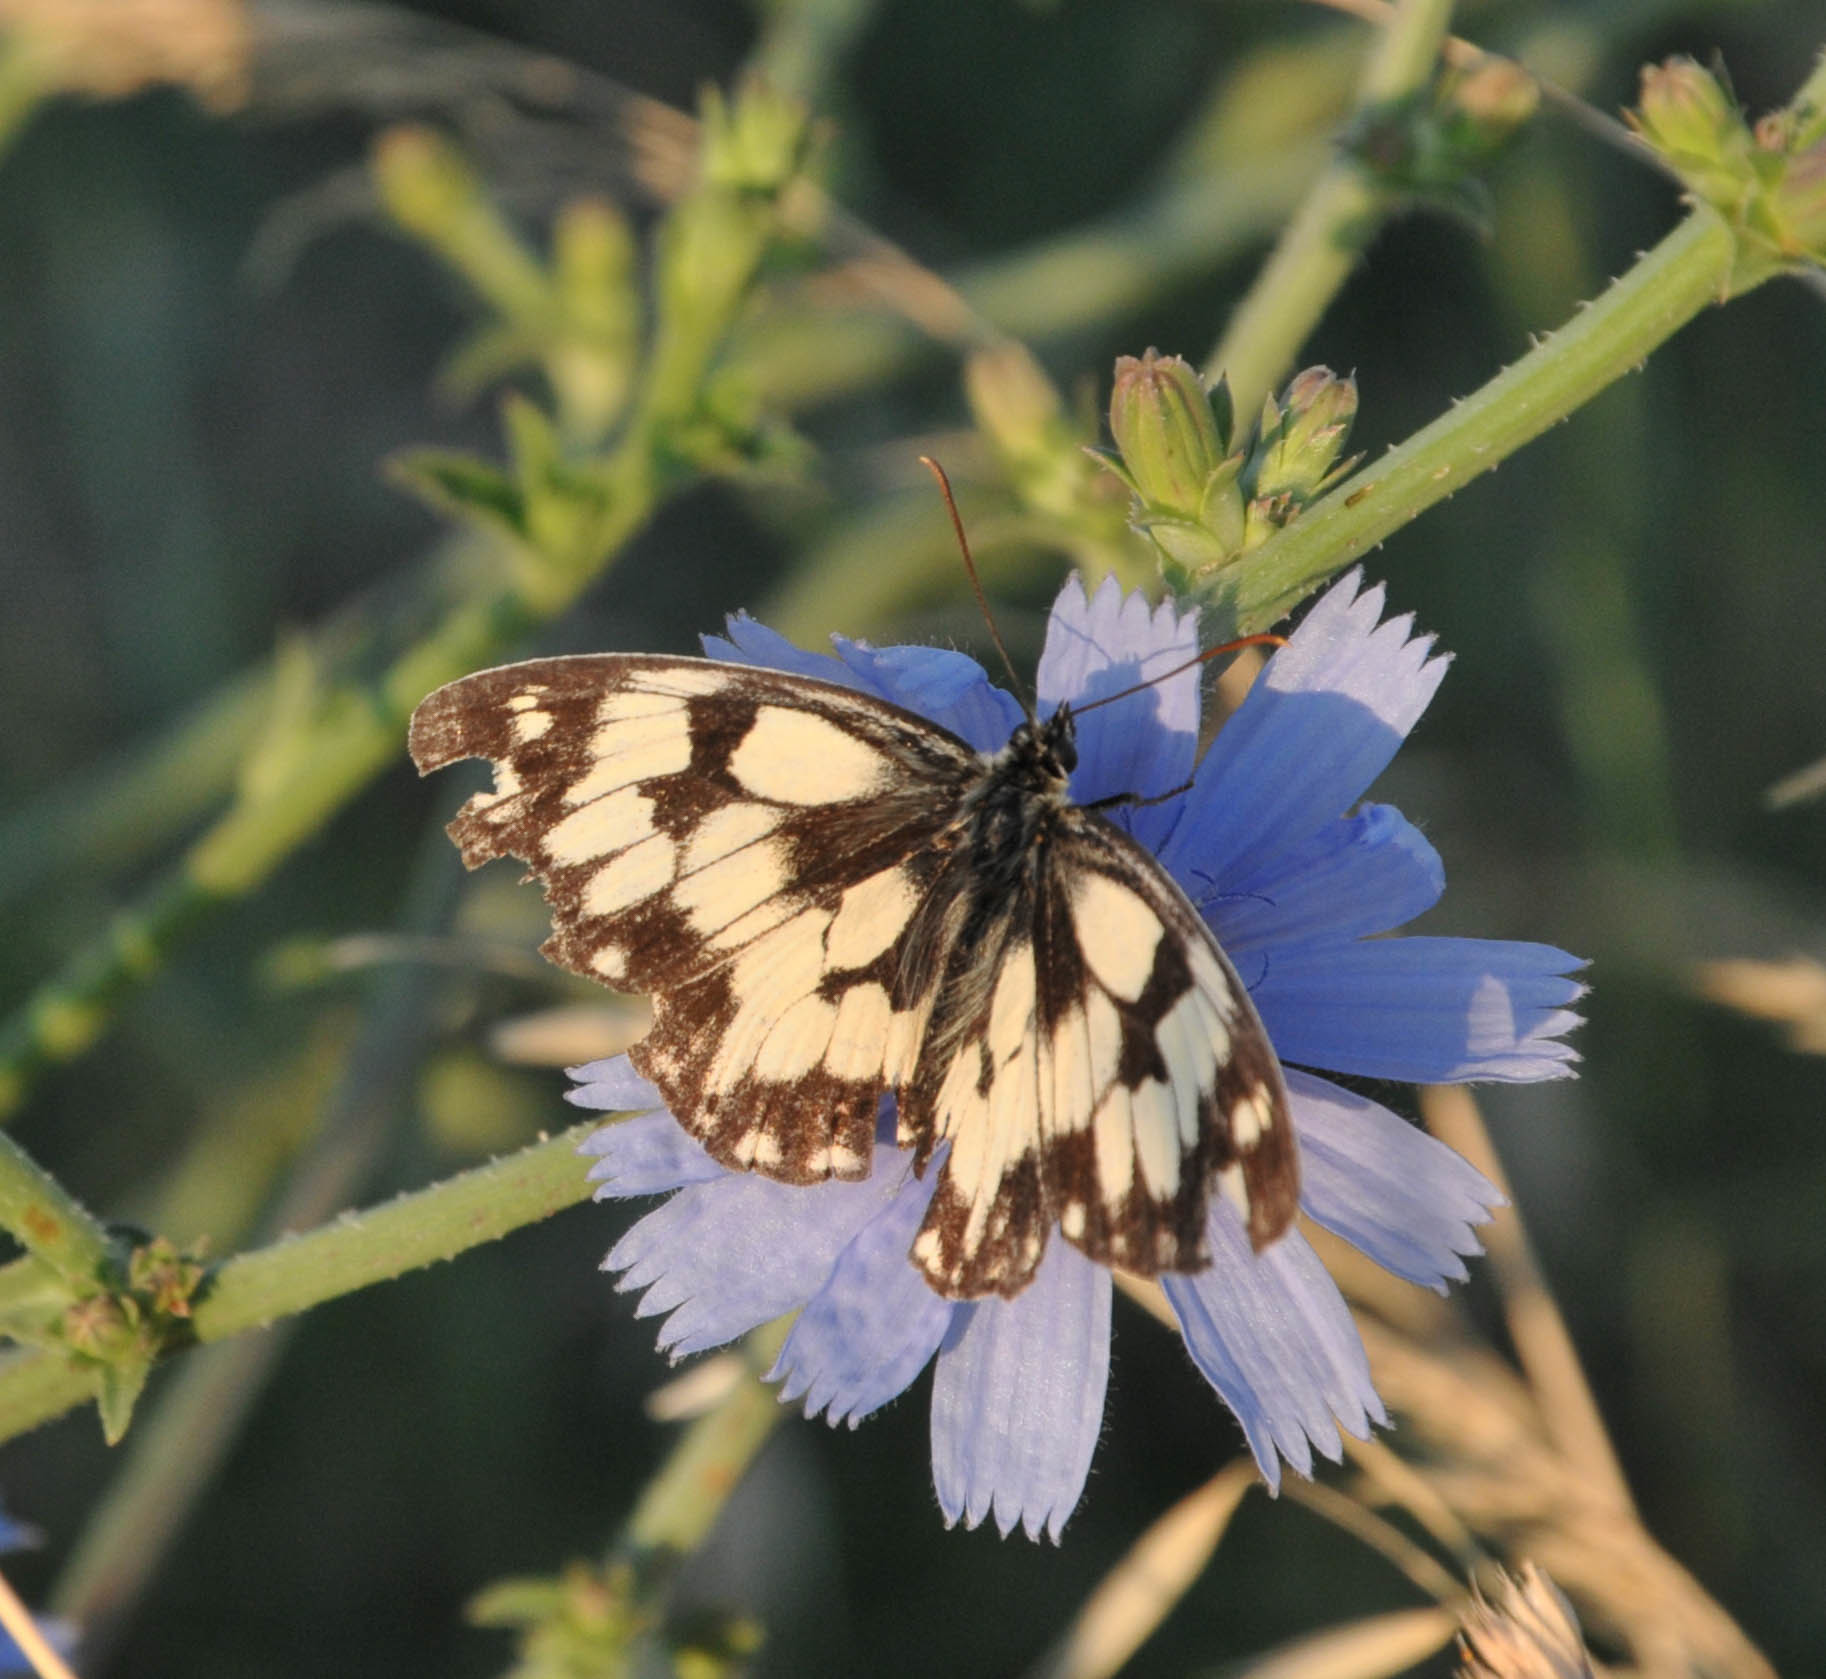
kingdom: Animalia
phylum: Arthropoda
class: Insecta
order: Lepidoptera
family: Nymphalidae
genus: Melanargia
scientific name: Melanargia galathea
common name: Marbled white
